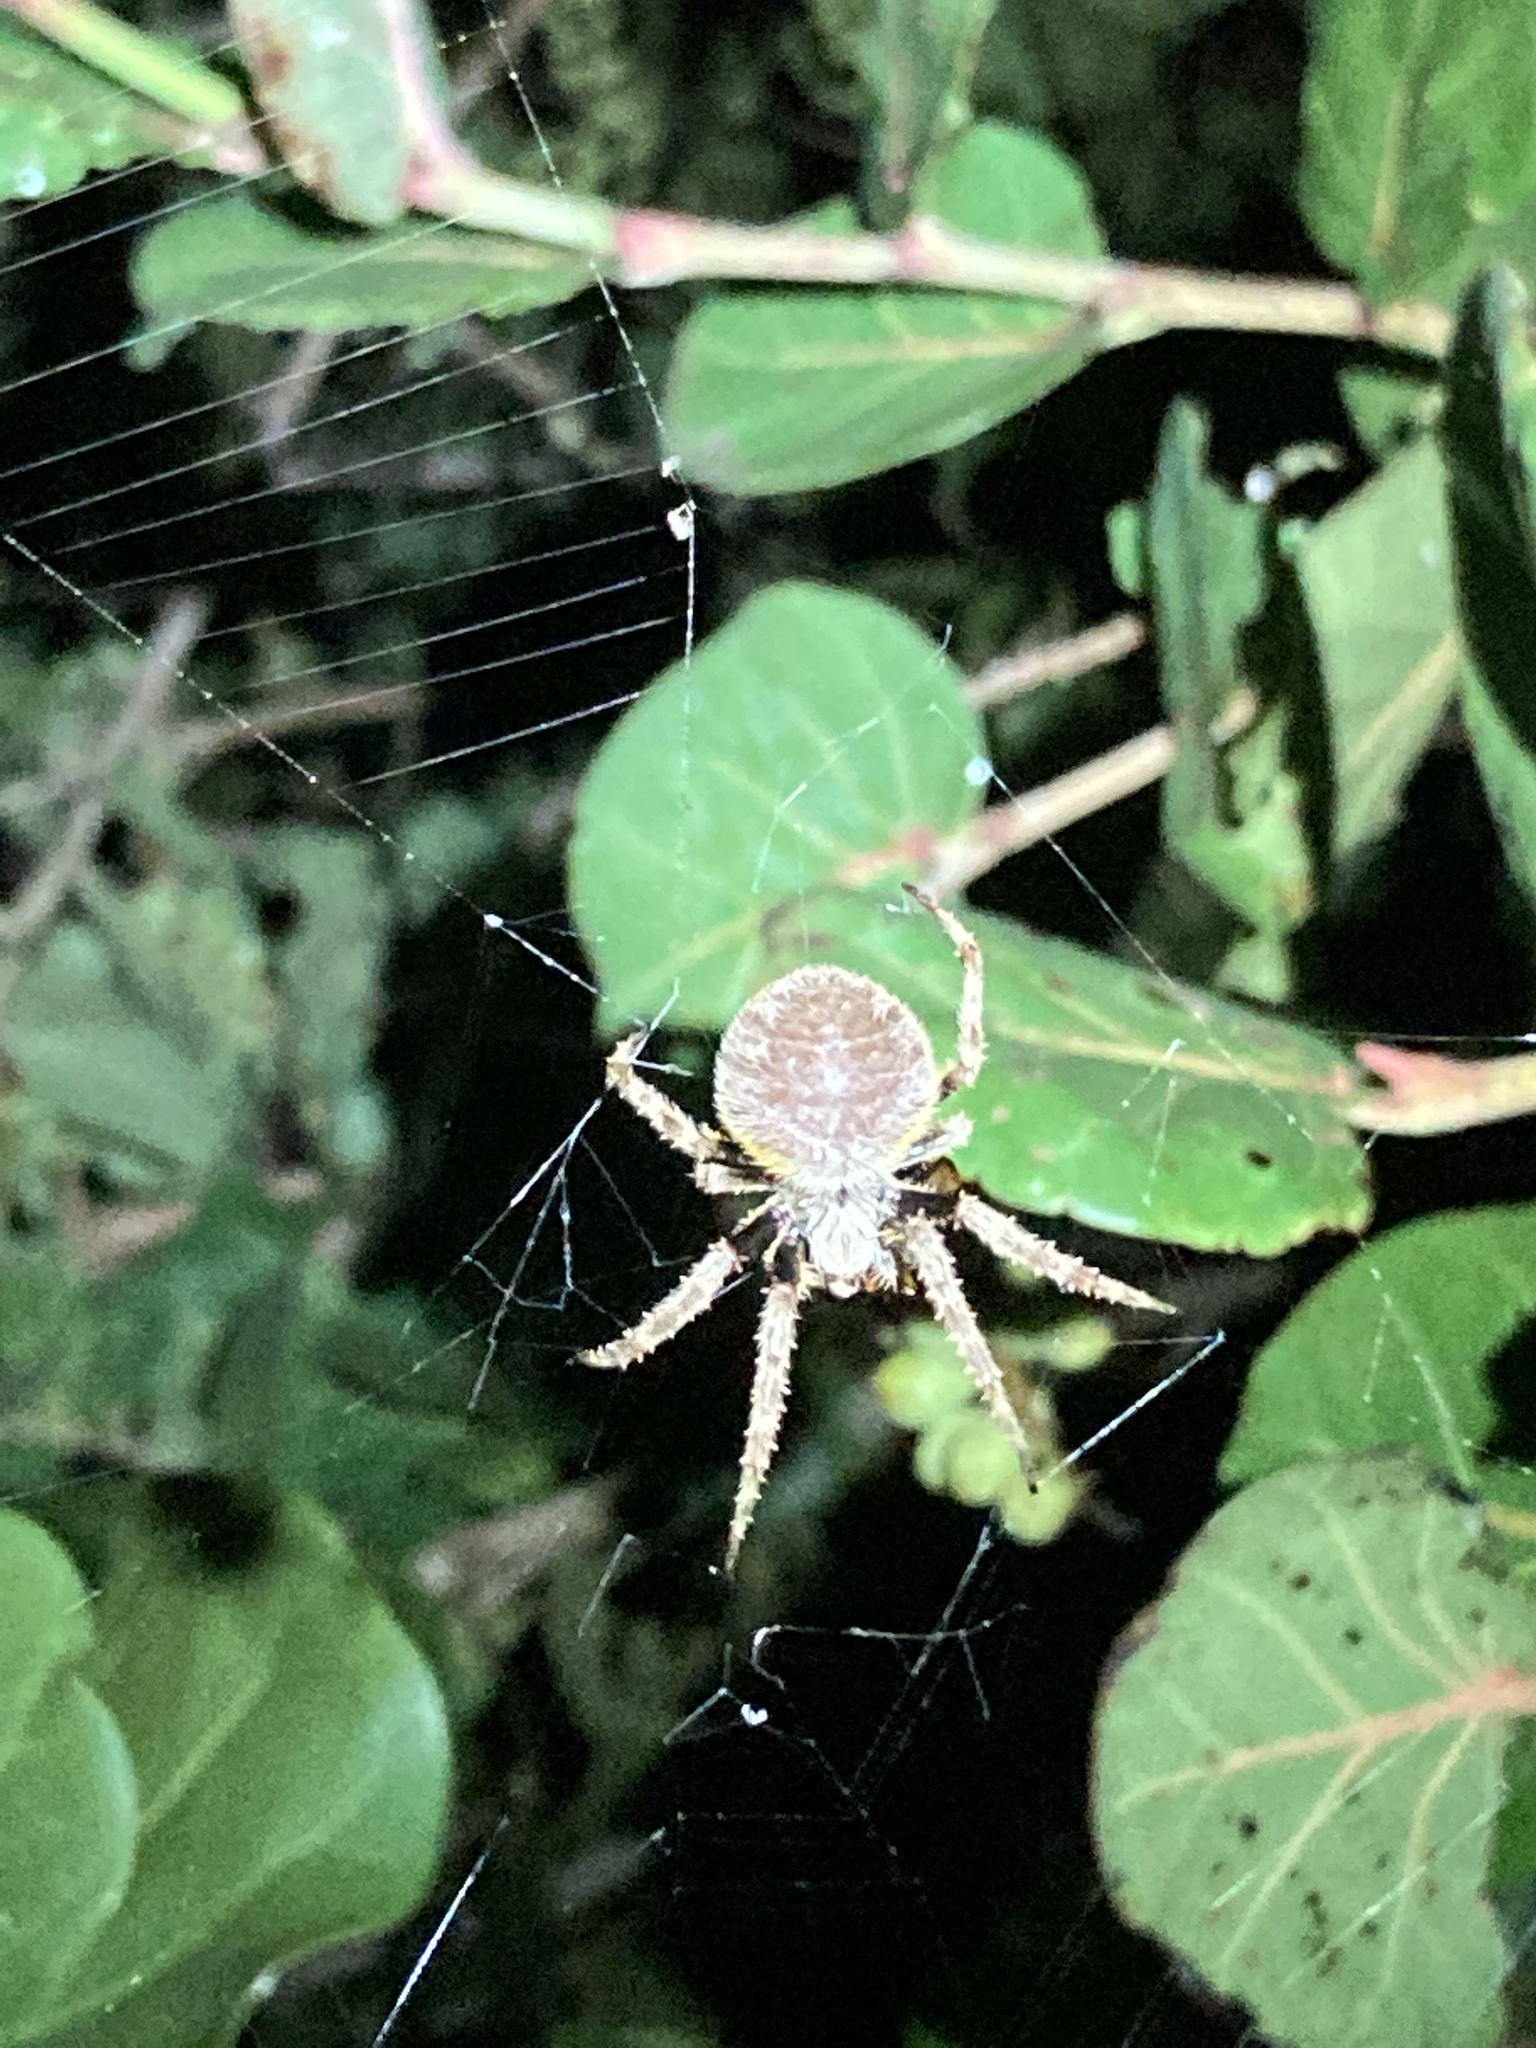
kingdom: Animalia
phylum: Arthropoda
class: Arachnida
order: Araneae
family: Araneidae
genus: Eriophora
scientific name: Eriophora ravilla
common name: Orb weavers
